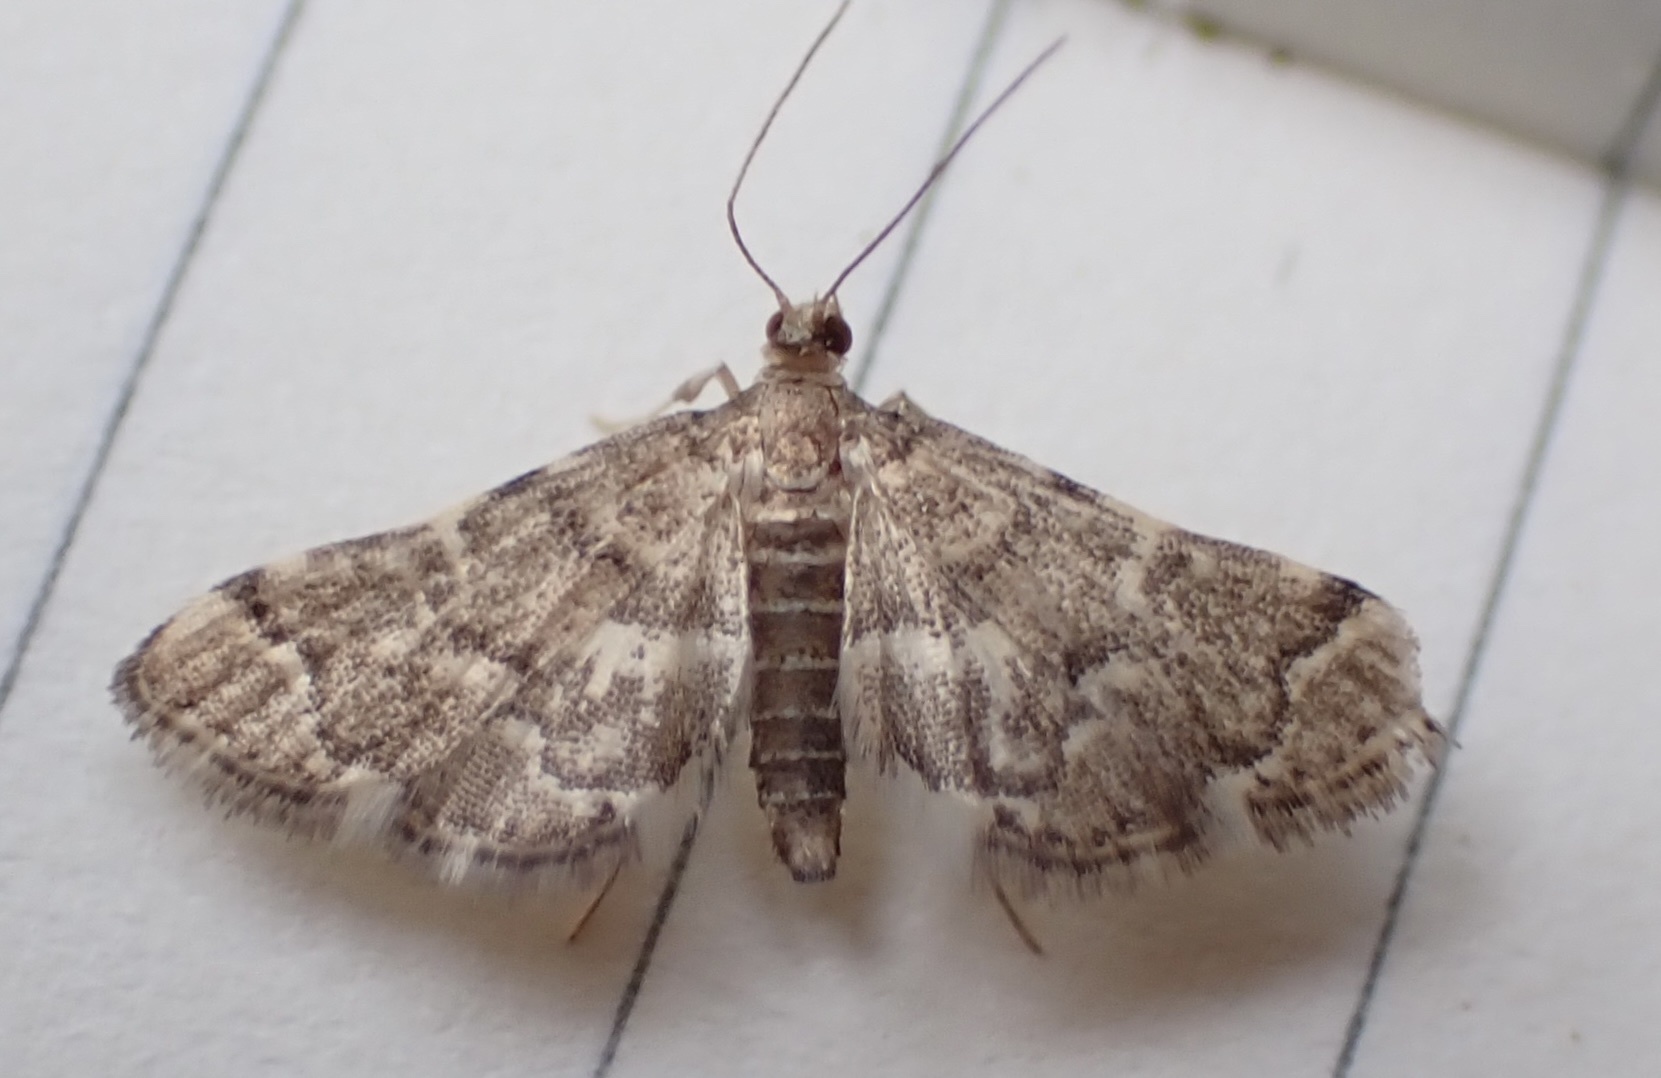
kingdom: Animalia
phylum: Arthropoda
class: Insecta
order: Lepidoptera
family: Crambidae
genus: Anageshna
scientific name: Anageshna primordialis
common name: Yellow-spotted webworm moth
